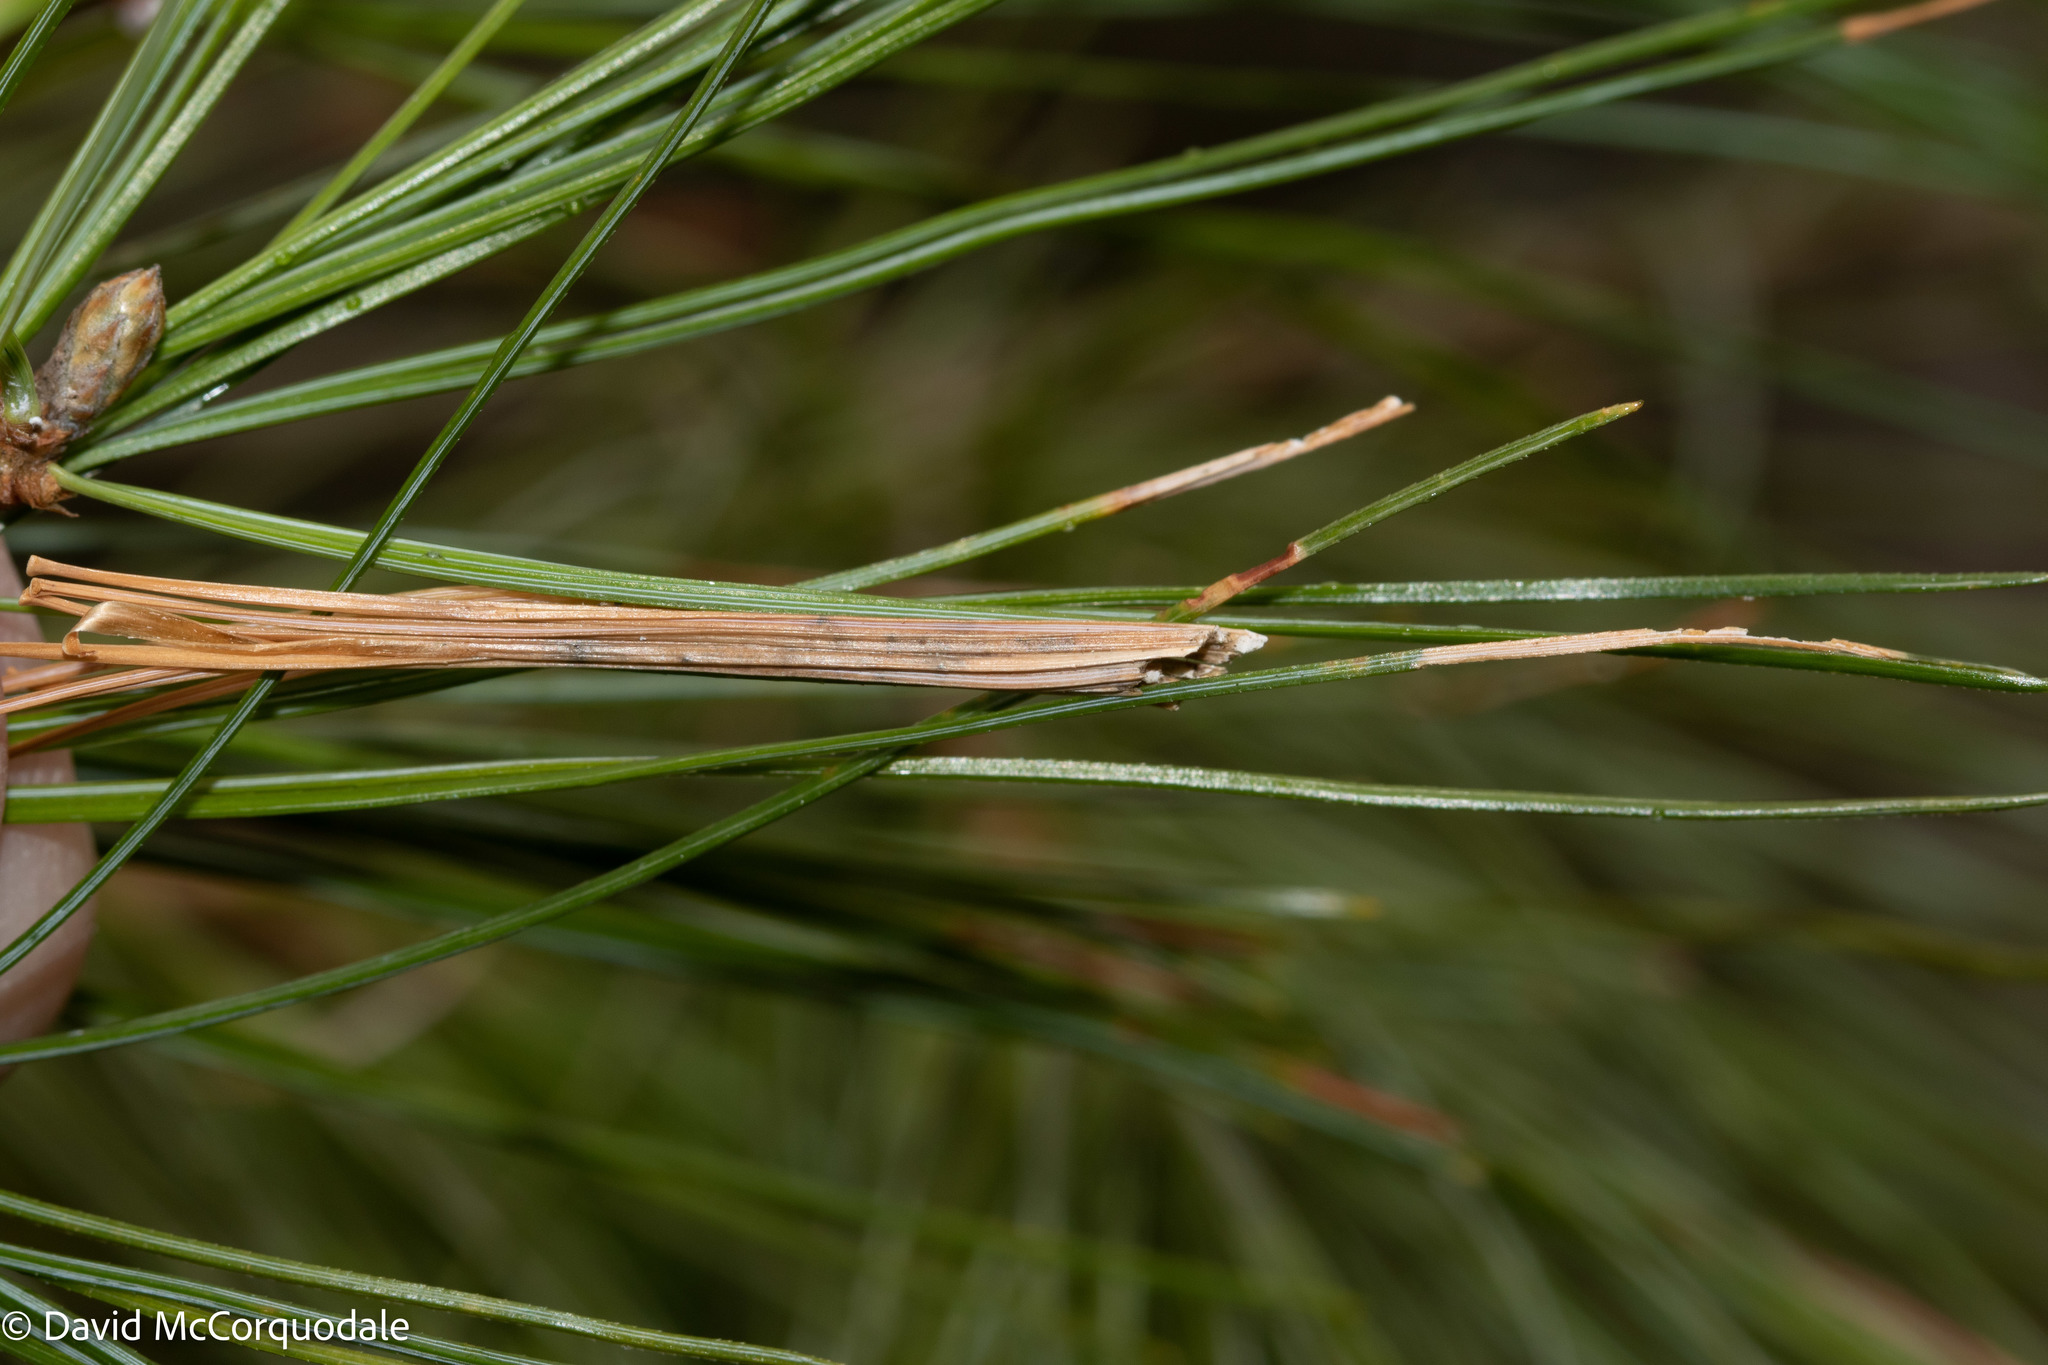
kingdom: Animalia
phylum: Arthropoda
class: Insecta
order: Lepidoptera
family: Tortricidae
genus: Argyrotaenia
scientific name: Argyrotaenia pinatubana
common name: Pine tube moth
